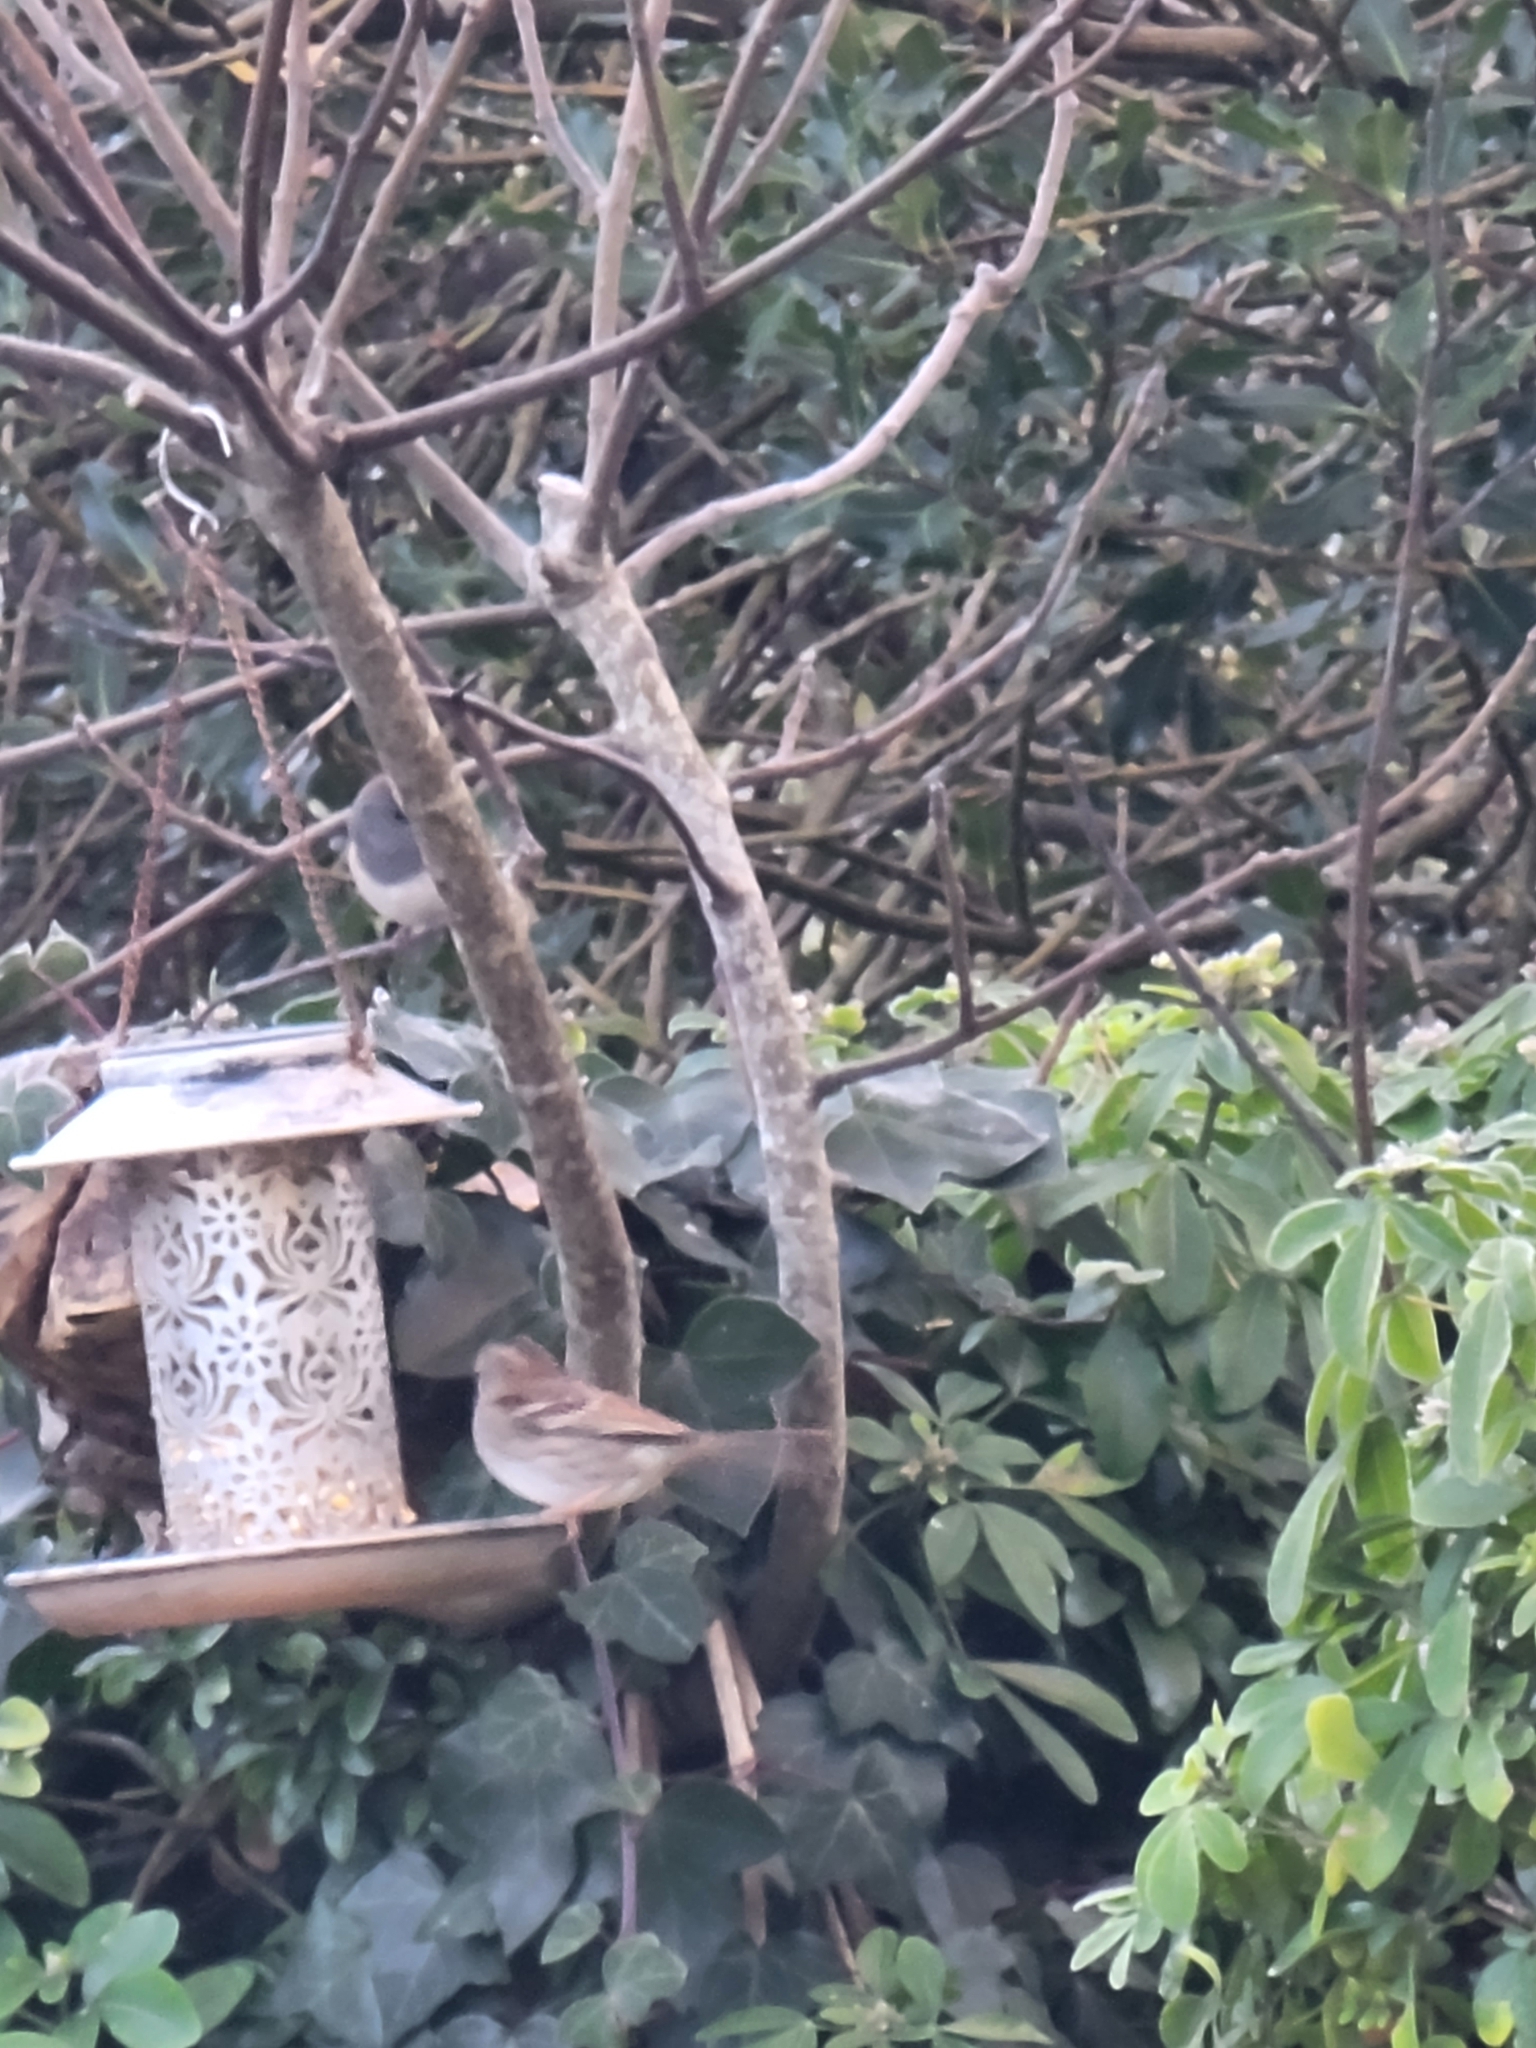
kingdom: Animalia
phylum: Chordata
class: Aves
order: Passeriformes
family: Passerellidae
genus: Zonotrichia
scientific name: Zonotrichia albicollis
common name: White-throated sparrow
